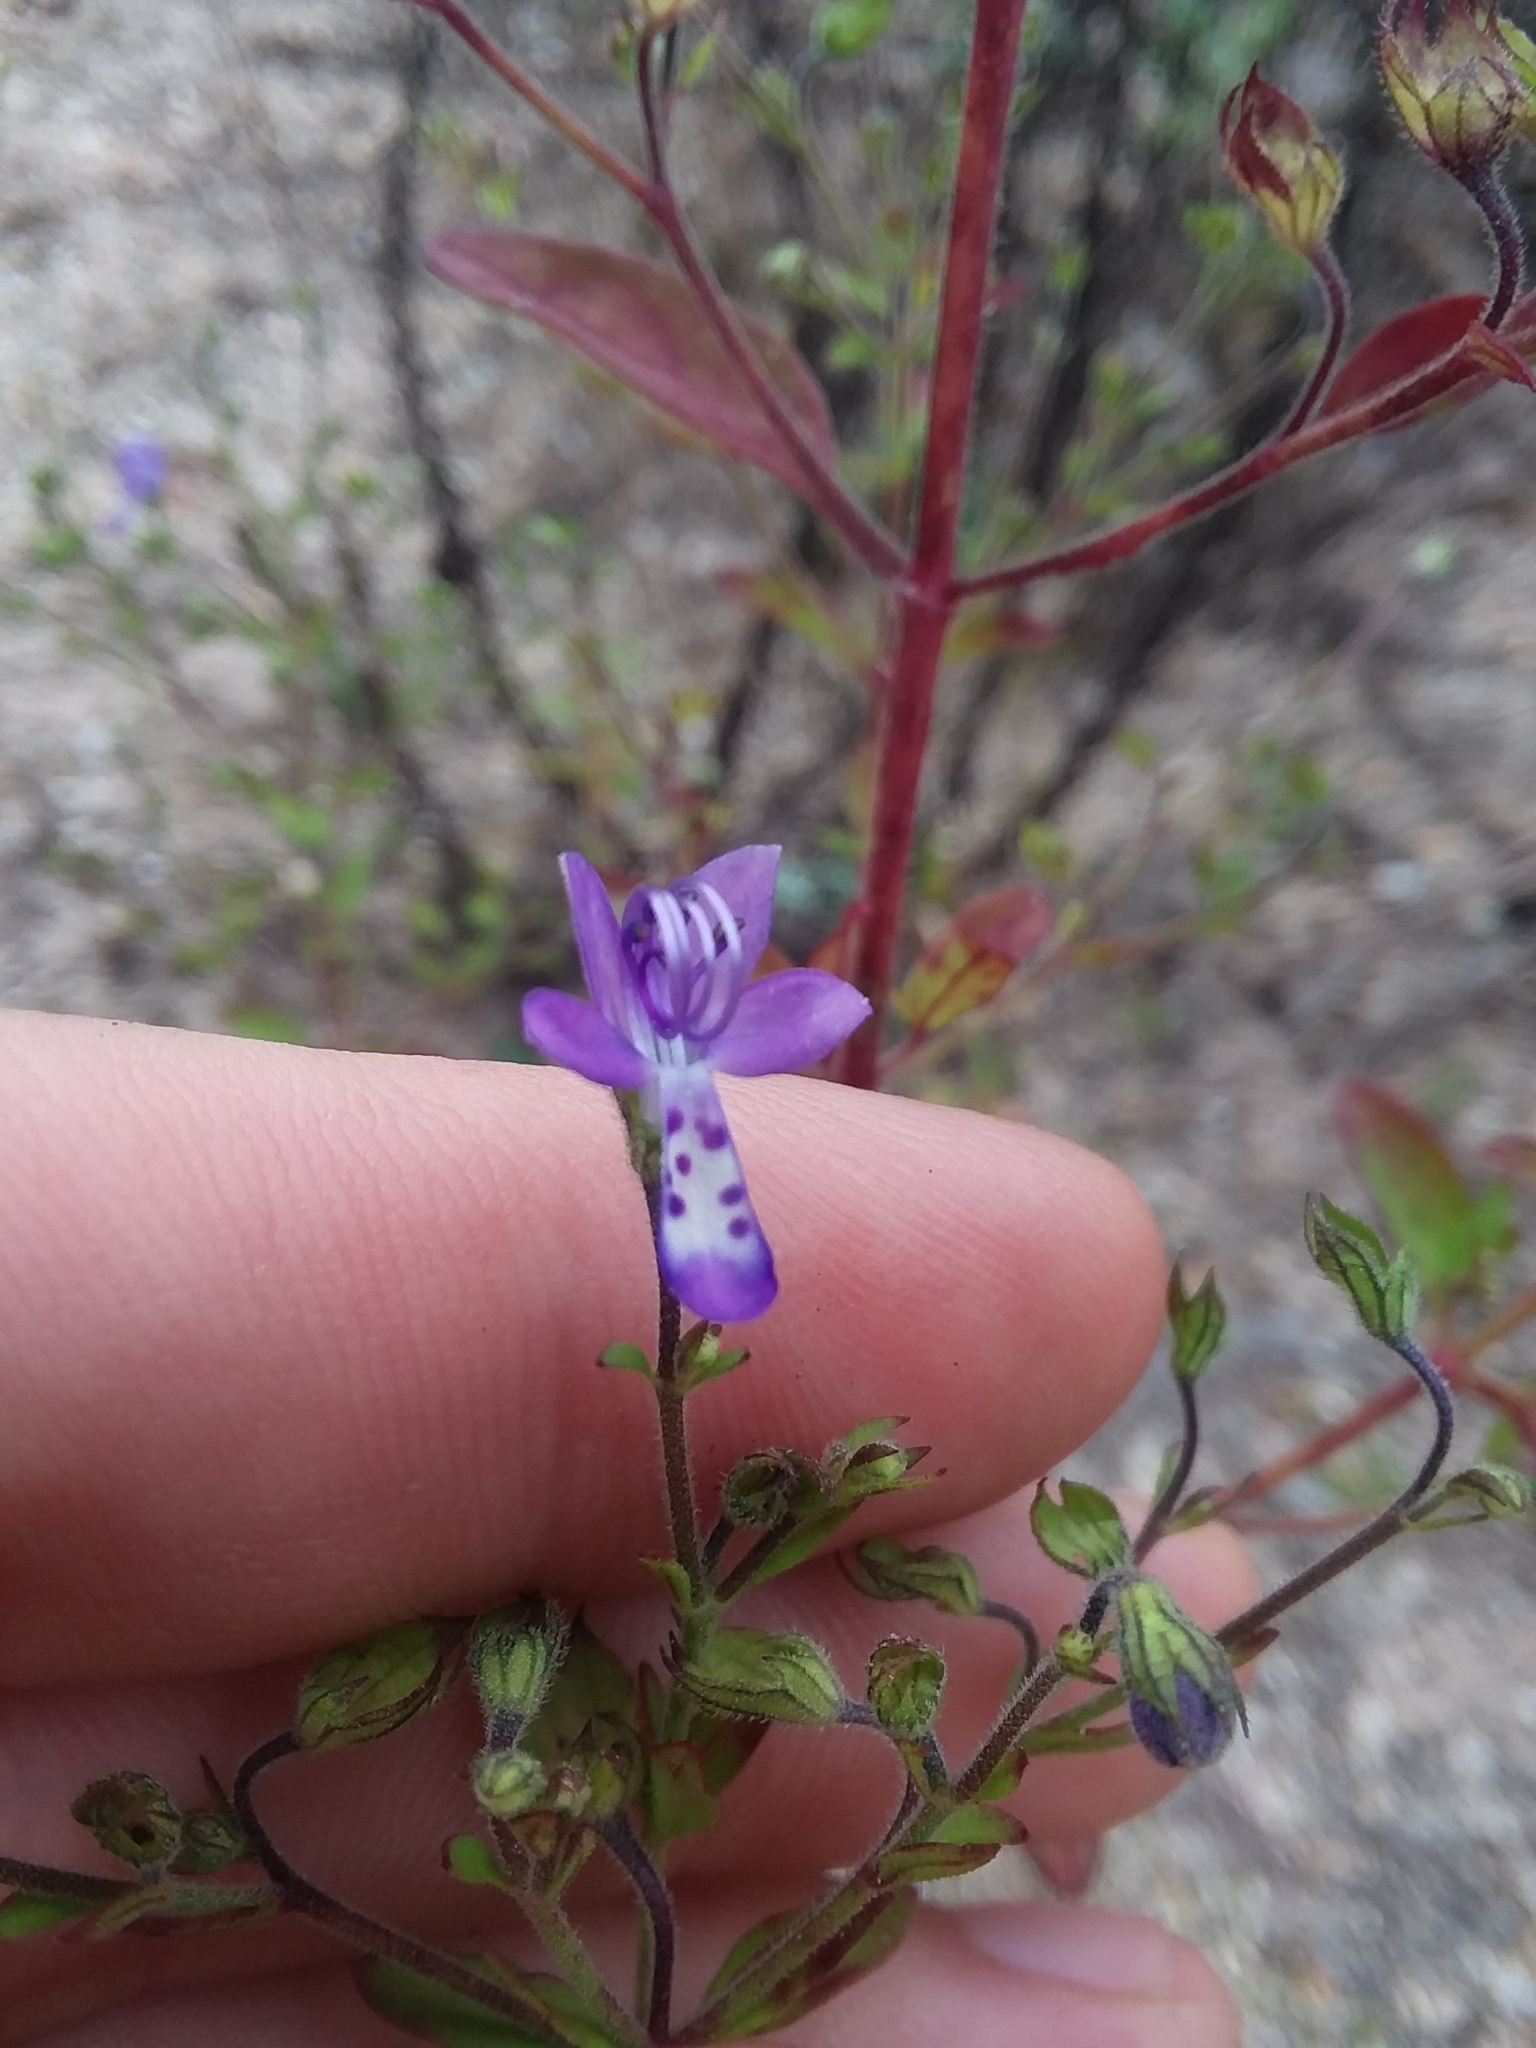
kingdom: Plantae
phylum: Tracheophyta
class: Magnoliopsida
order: Lamiales
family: Lamiaceae
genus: Trichostema
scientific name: Trichostema dichotomum
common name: Bastard pennyroyal
